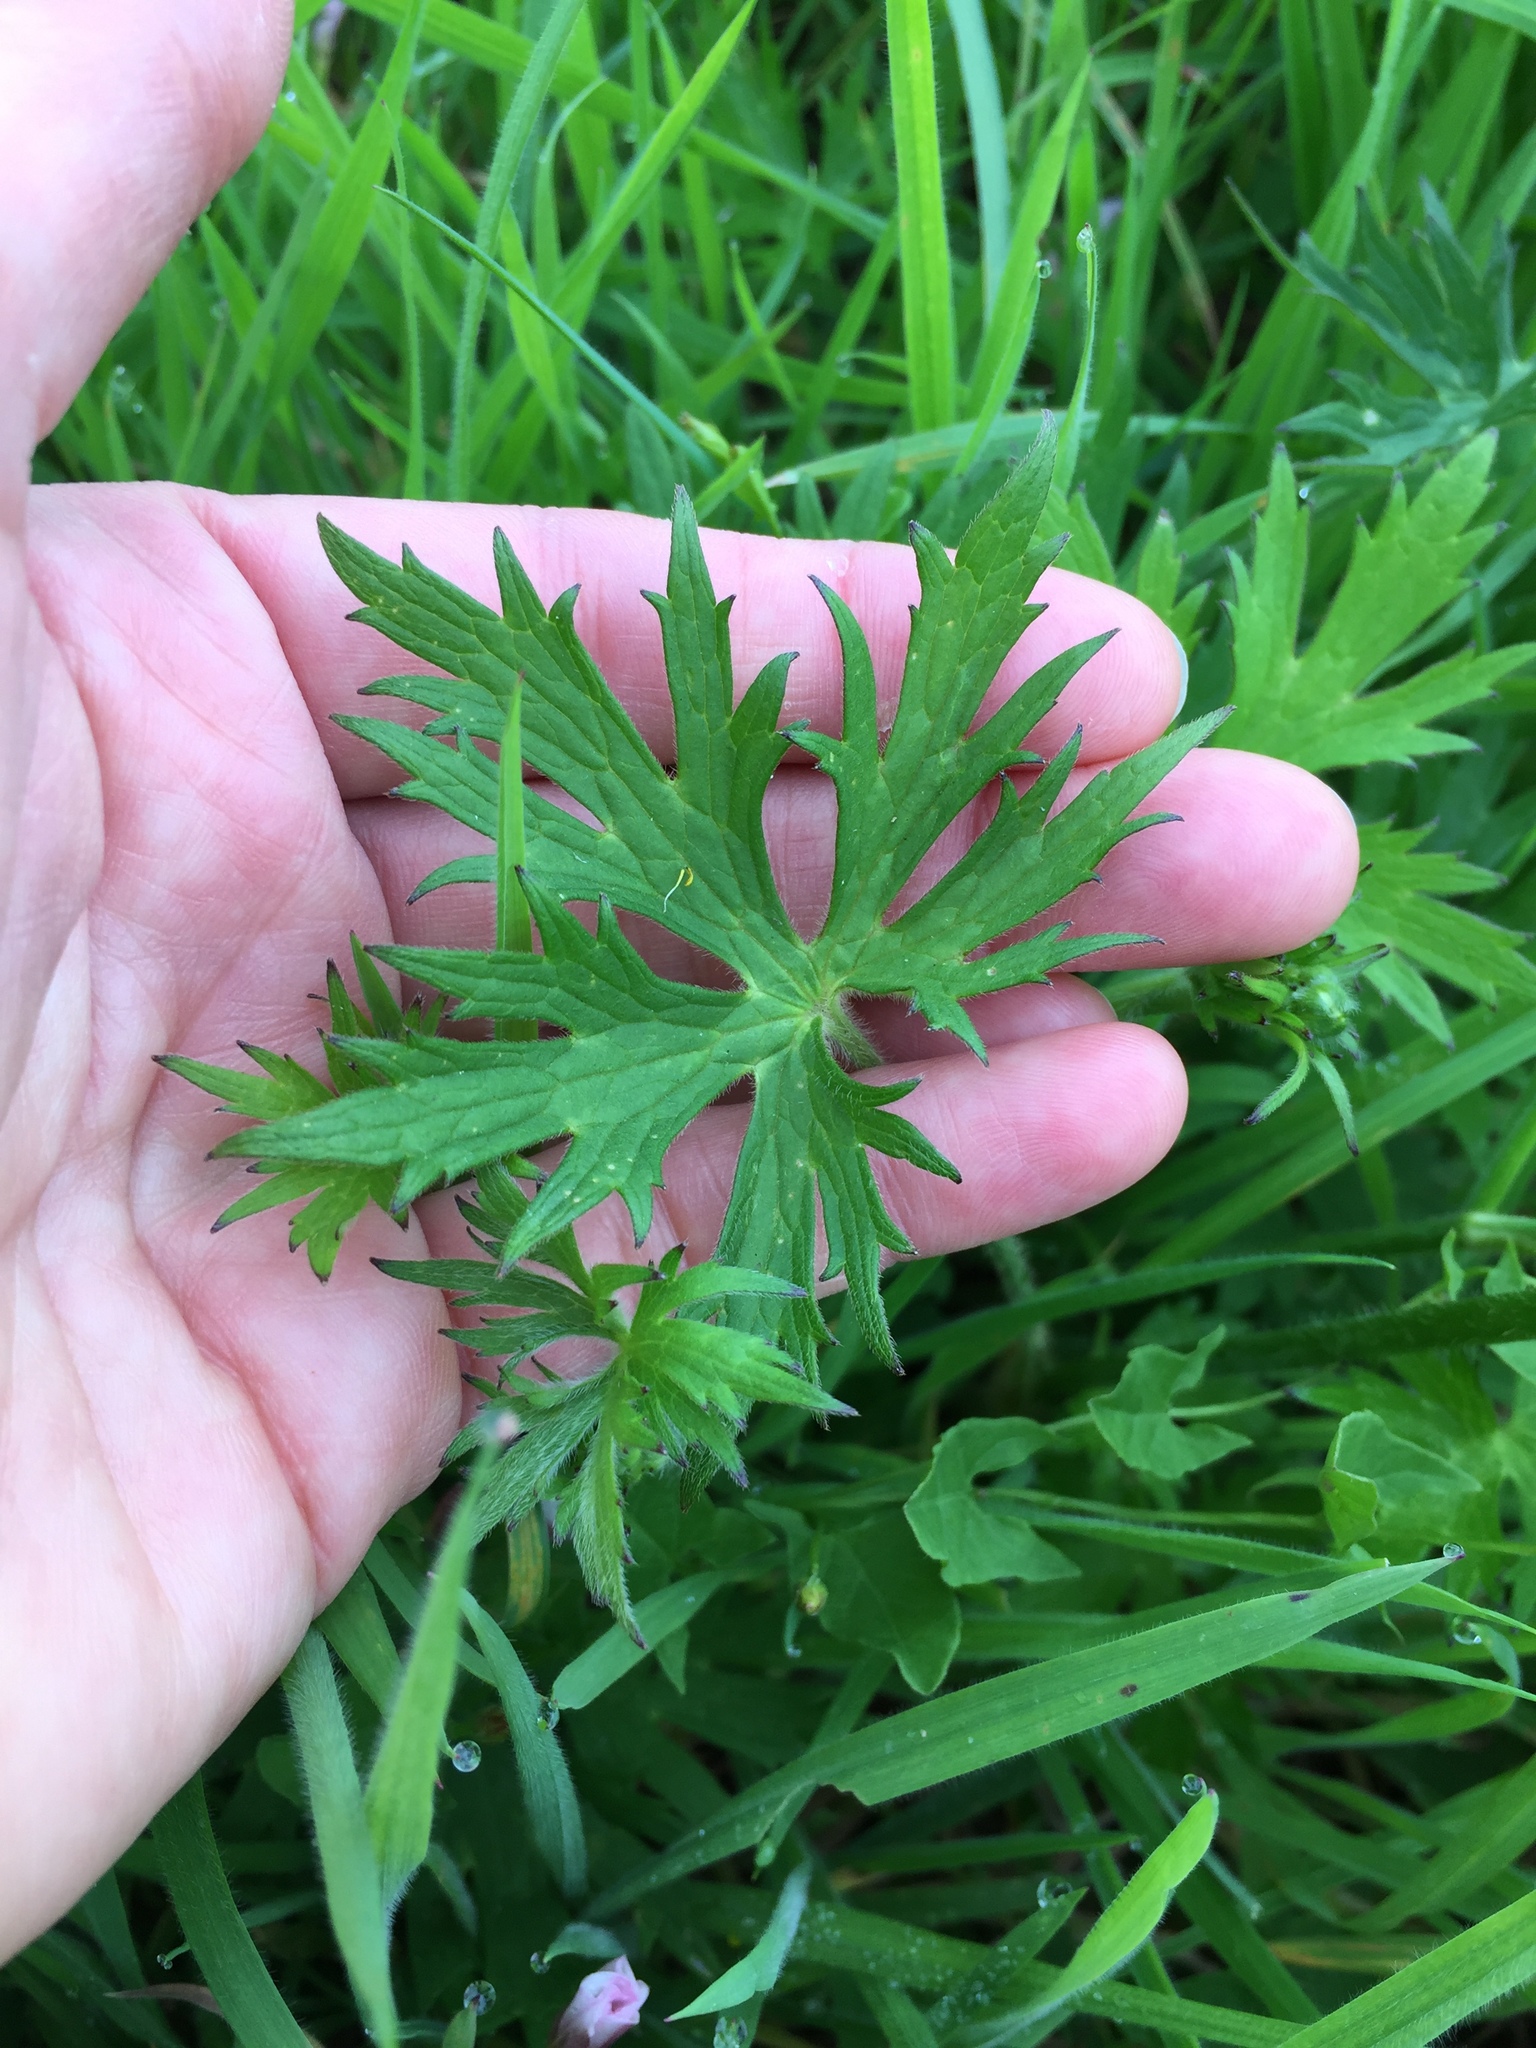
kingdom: Plantae
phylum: Tracheophyta
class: Magnoliopsida
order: Ranunculales
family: Ranunculaceae
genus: Ranunculus
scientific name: Ranunculus acris
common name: Meadow buttercup
